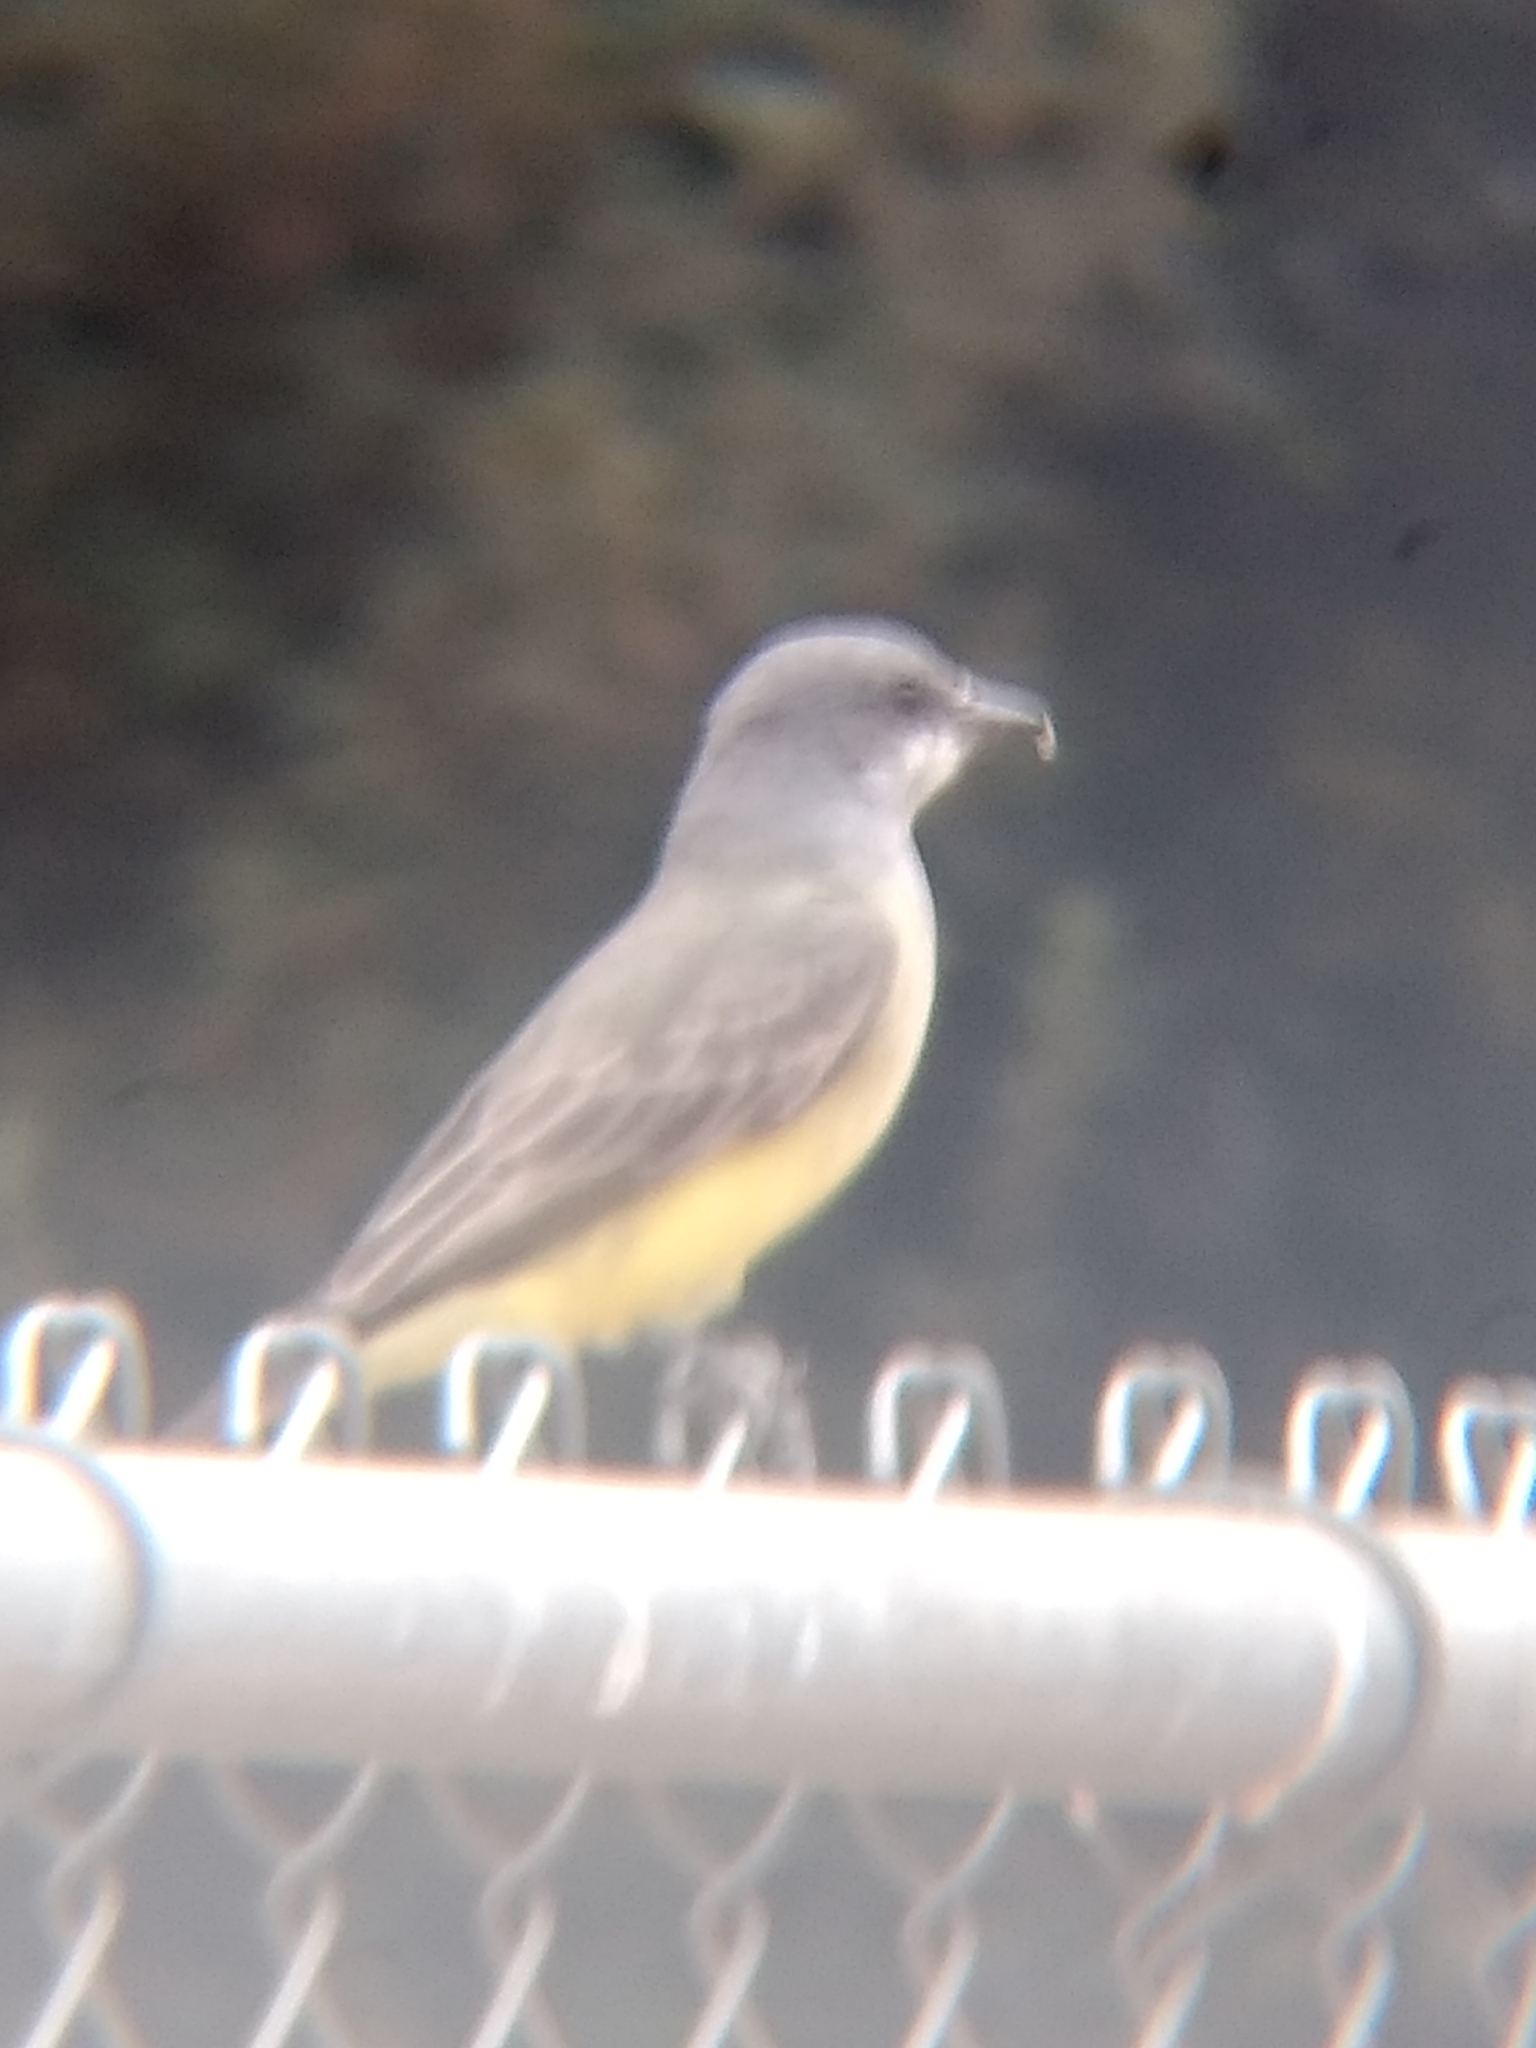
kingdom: Animalia
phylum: Chordata
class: Aves
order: Passeriformes
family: Tyrannidae
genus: Tyrannus
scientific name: Tyrannus vociferans
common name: Cassin's kingbird
